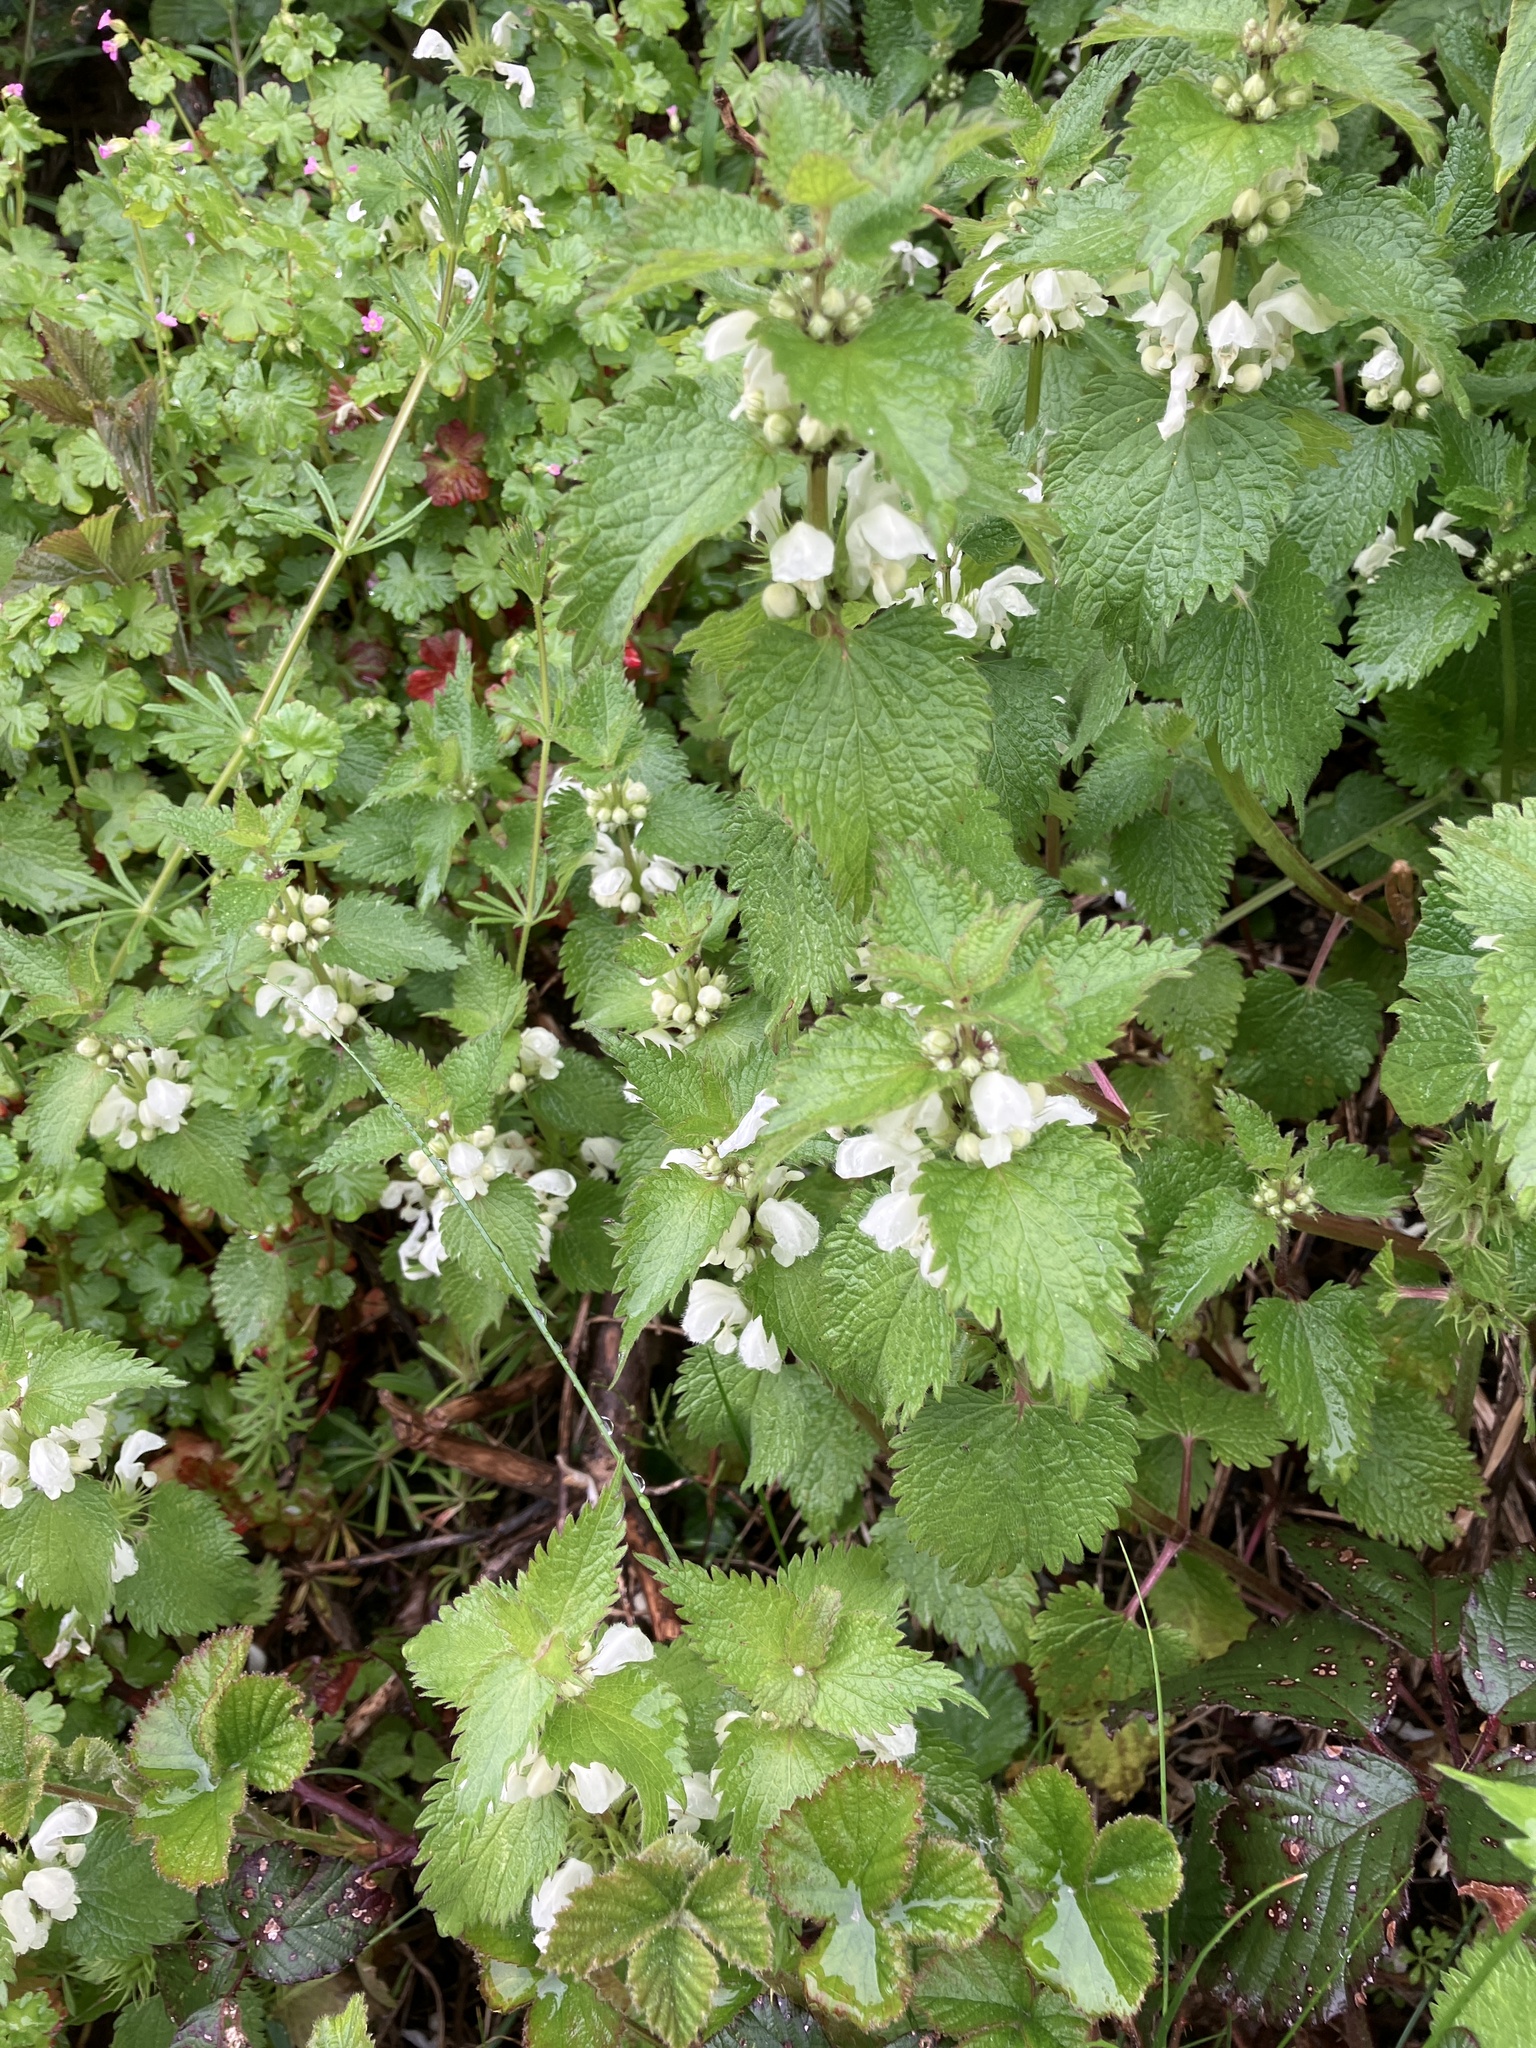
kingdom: Plantae
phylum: Tracheophyta
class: Magnoliopsida
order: Lamiales
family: Lamiaceae
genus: Lamium
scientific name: Lamium album
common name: White dead-nettle
